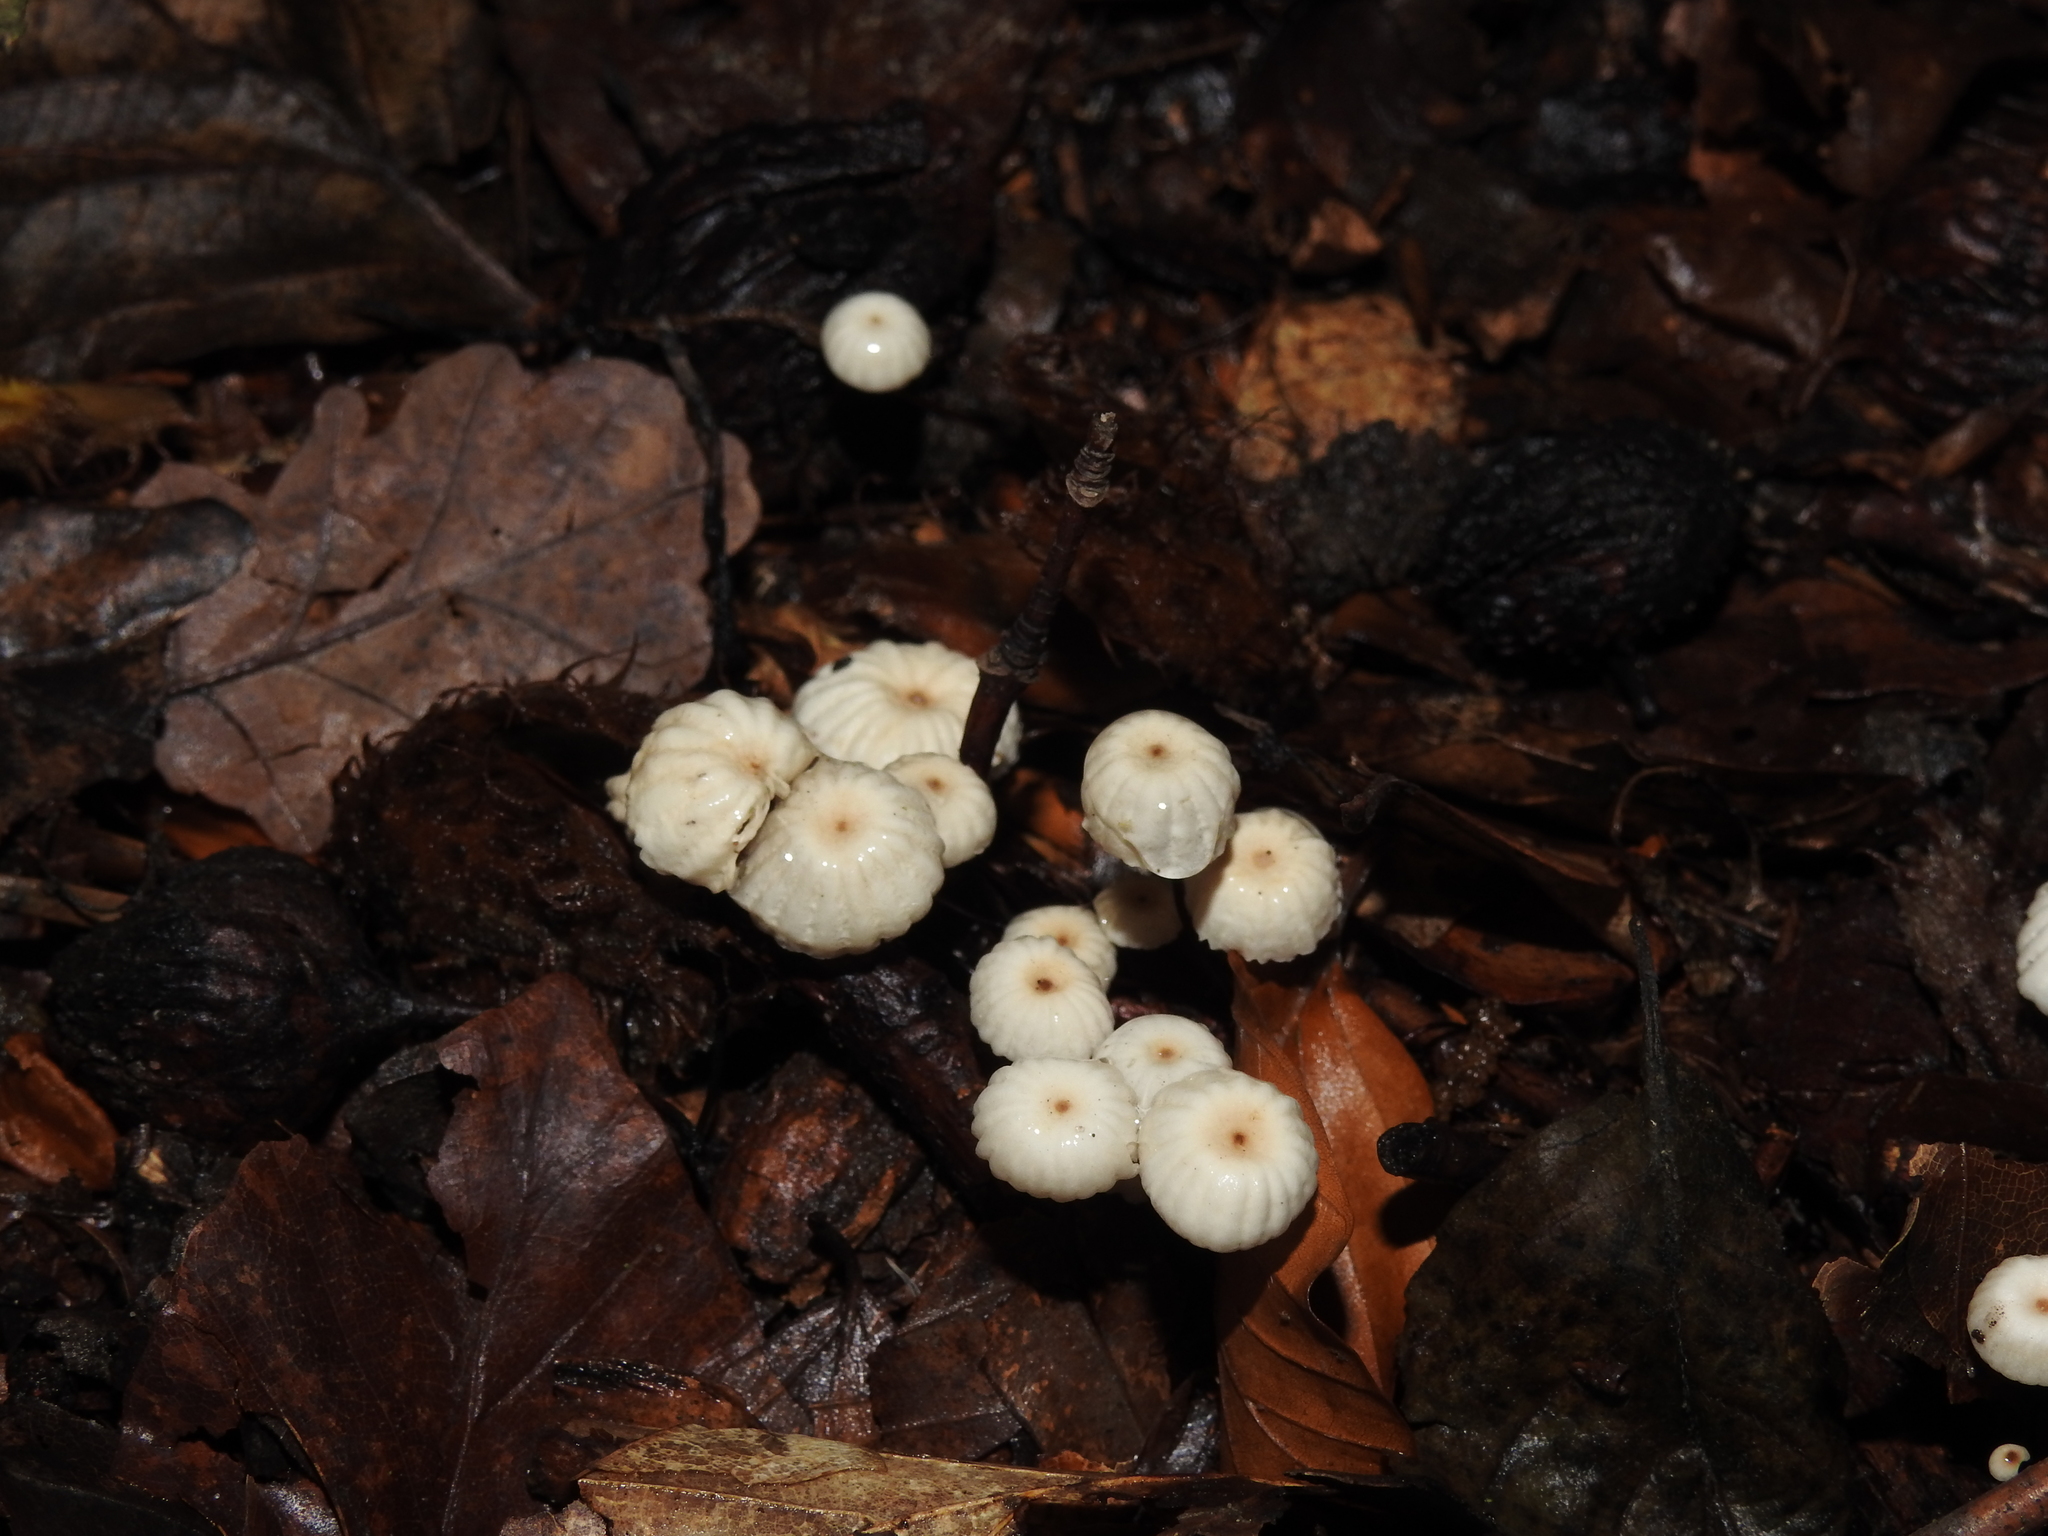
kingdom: Fungi
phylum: Basidiomycota
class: Agaricomycetes
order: Agaricales
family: Marasmiaceae
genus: Marasmius
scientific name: Marasmius rotula
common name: Collared parachute
